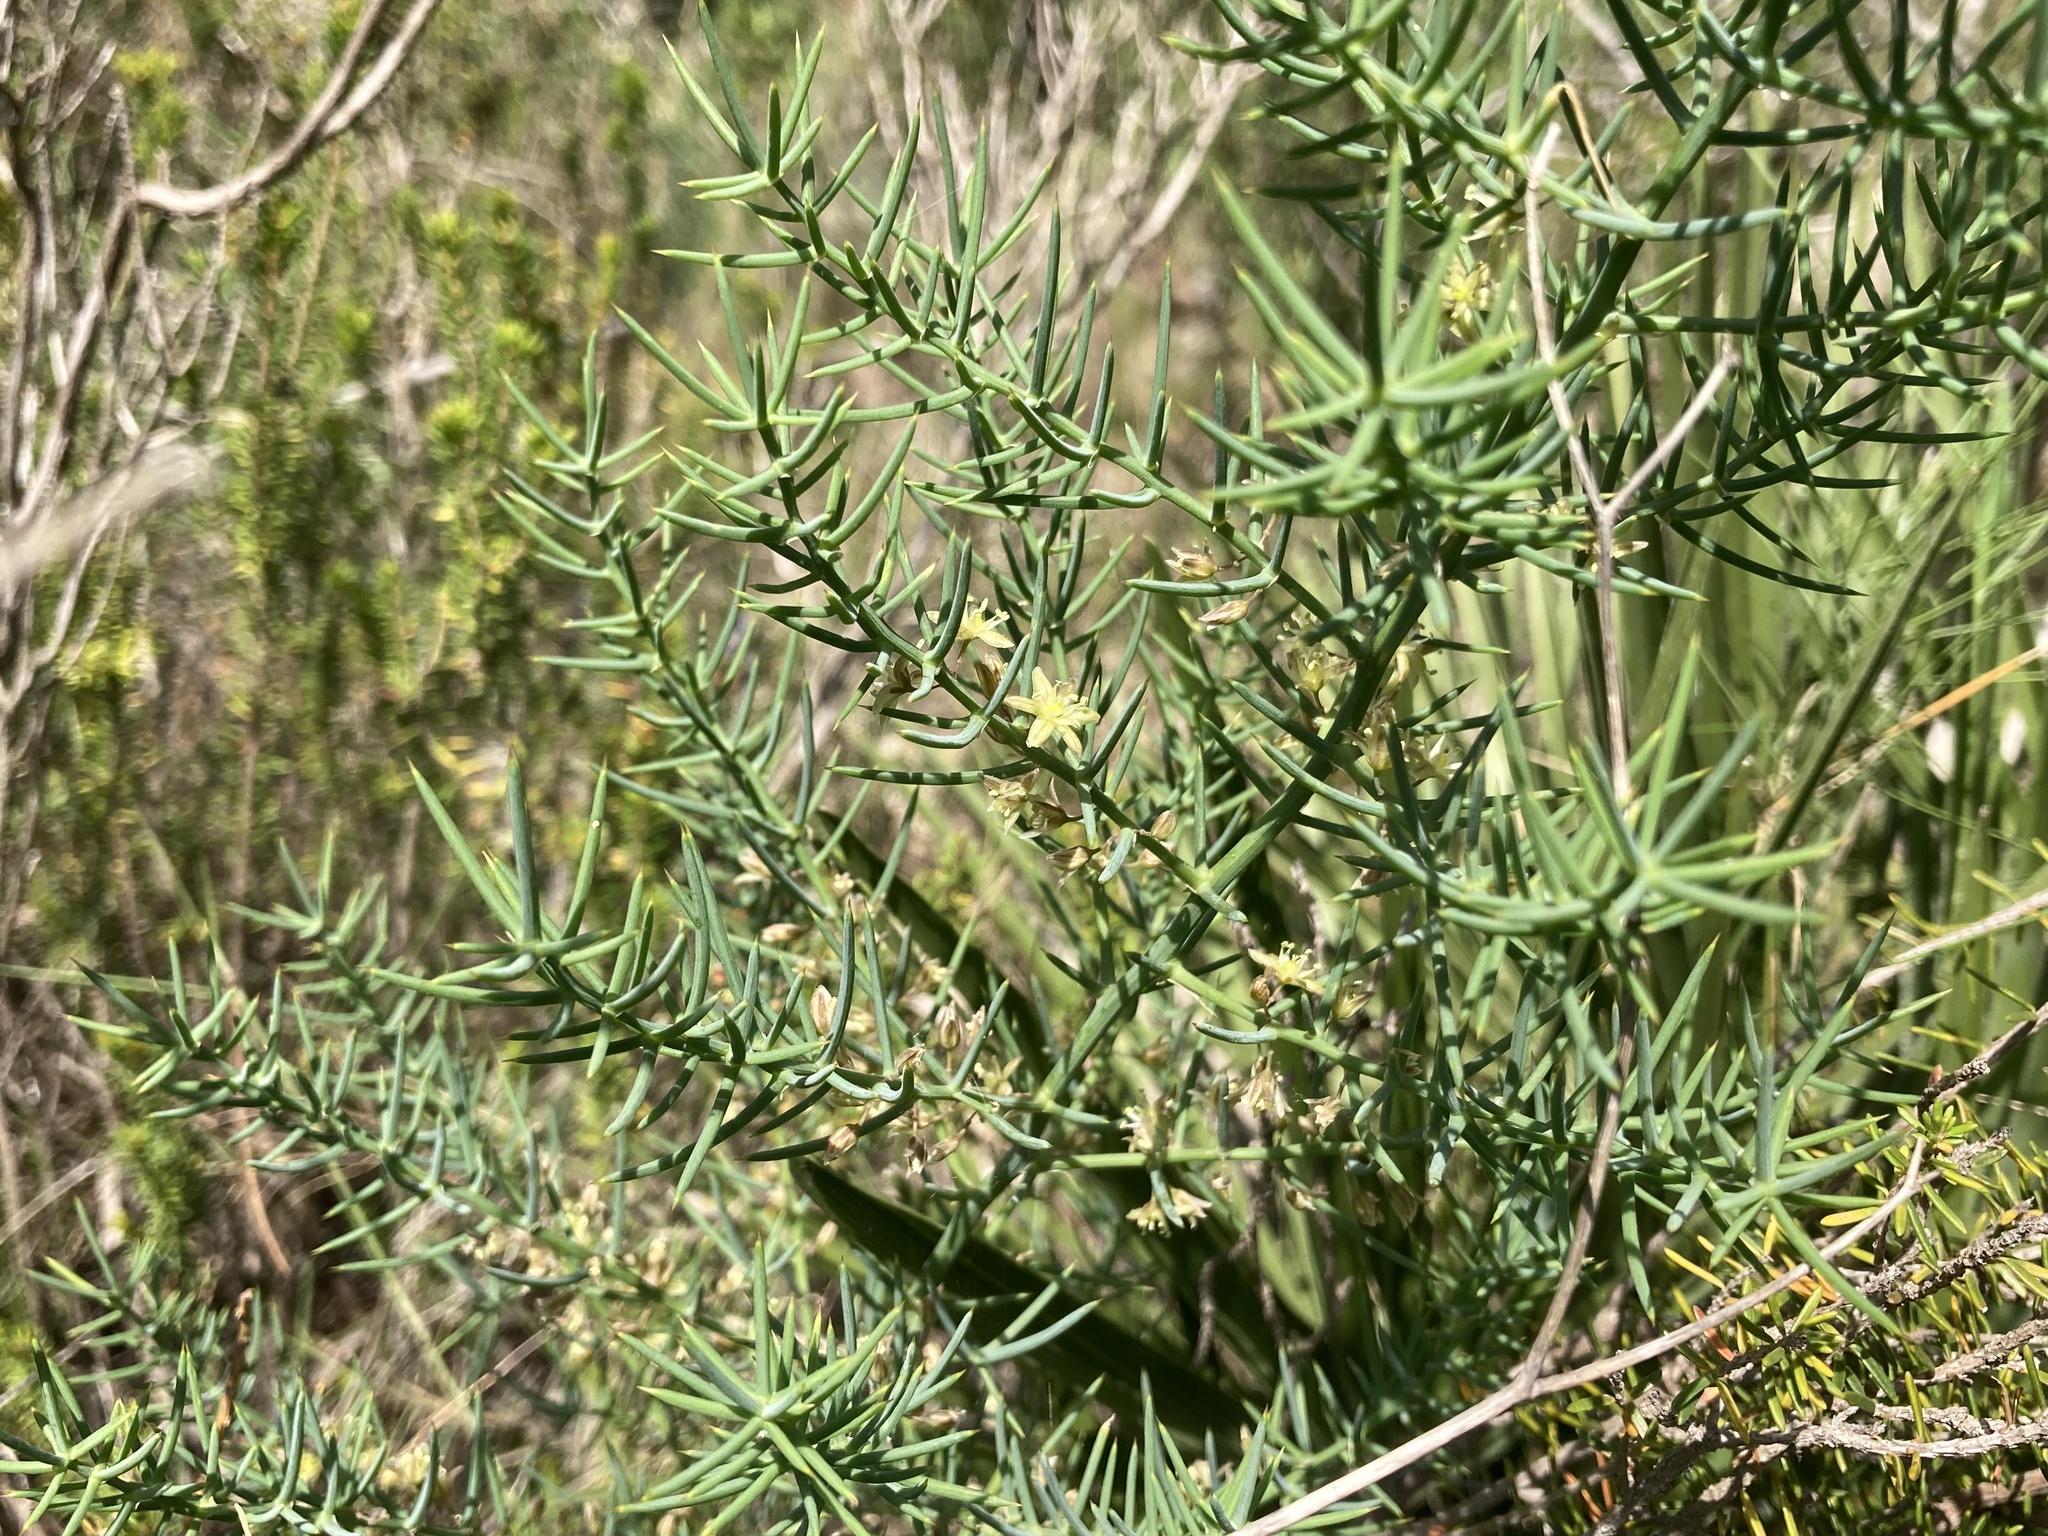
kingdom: Plantae
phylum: Tracheophyta
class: Liliopsida
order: Asparagales
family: Asparagaceae
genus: Asparagus
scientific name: Asparagus horridus
